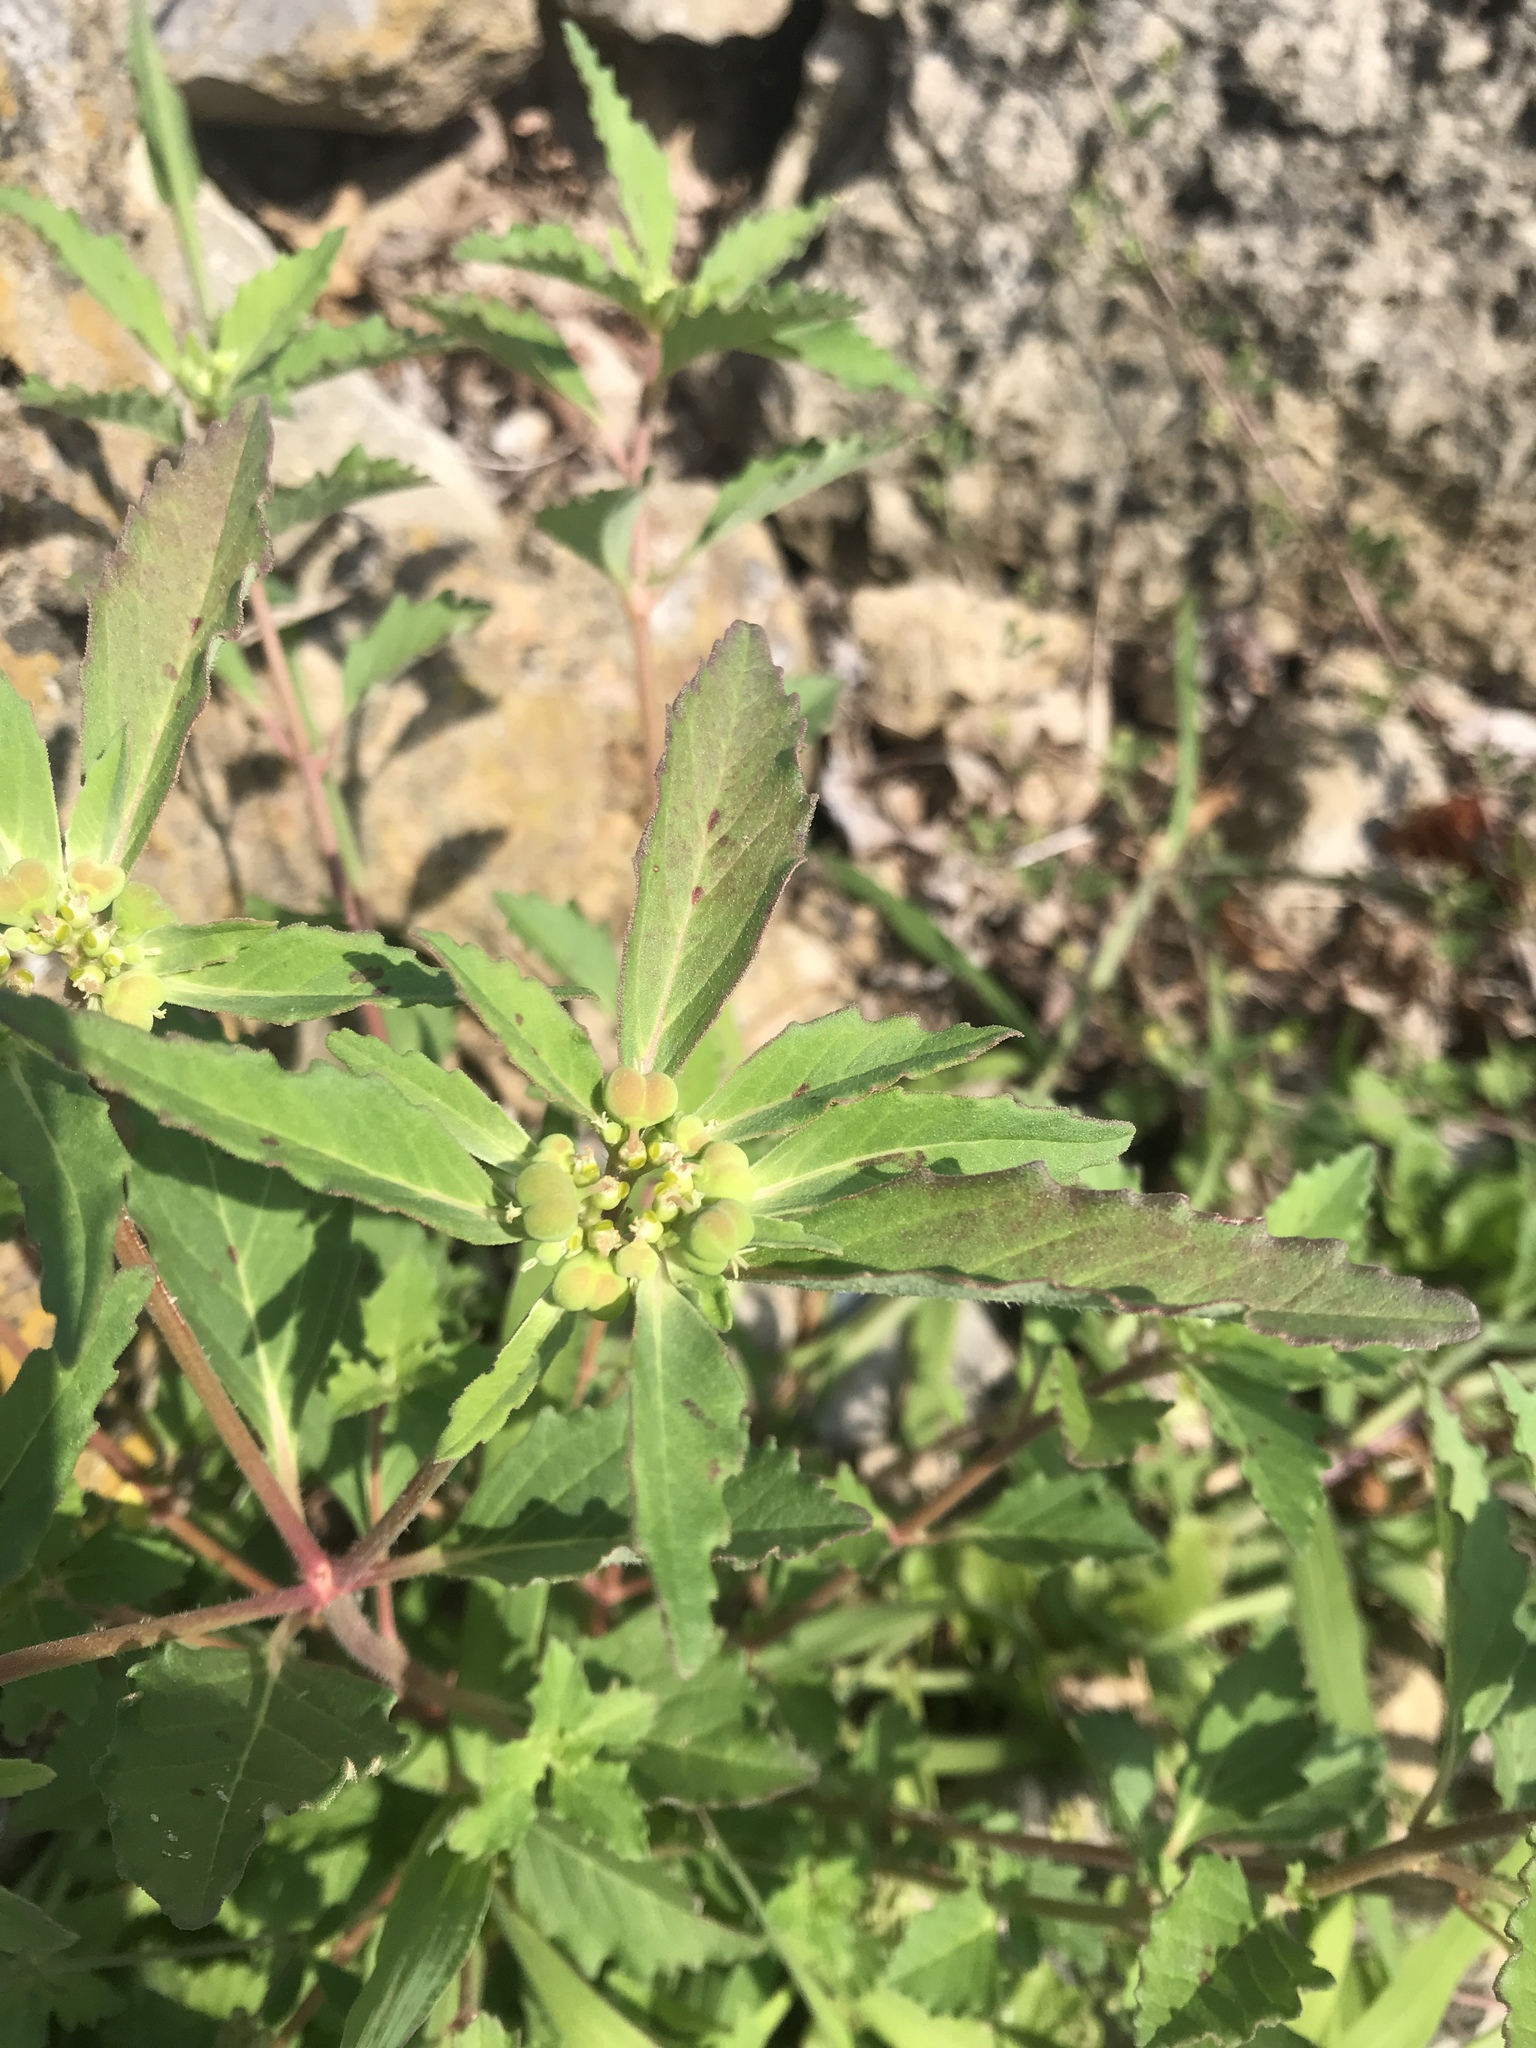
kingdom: Plantae
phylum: Tracheophyta
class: Magnoliopsida
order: Malpighiales
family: Euphorbiaceae
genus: Euphorbia
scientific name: Euphorbia davidii
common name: David's spurge
